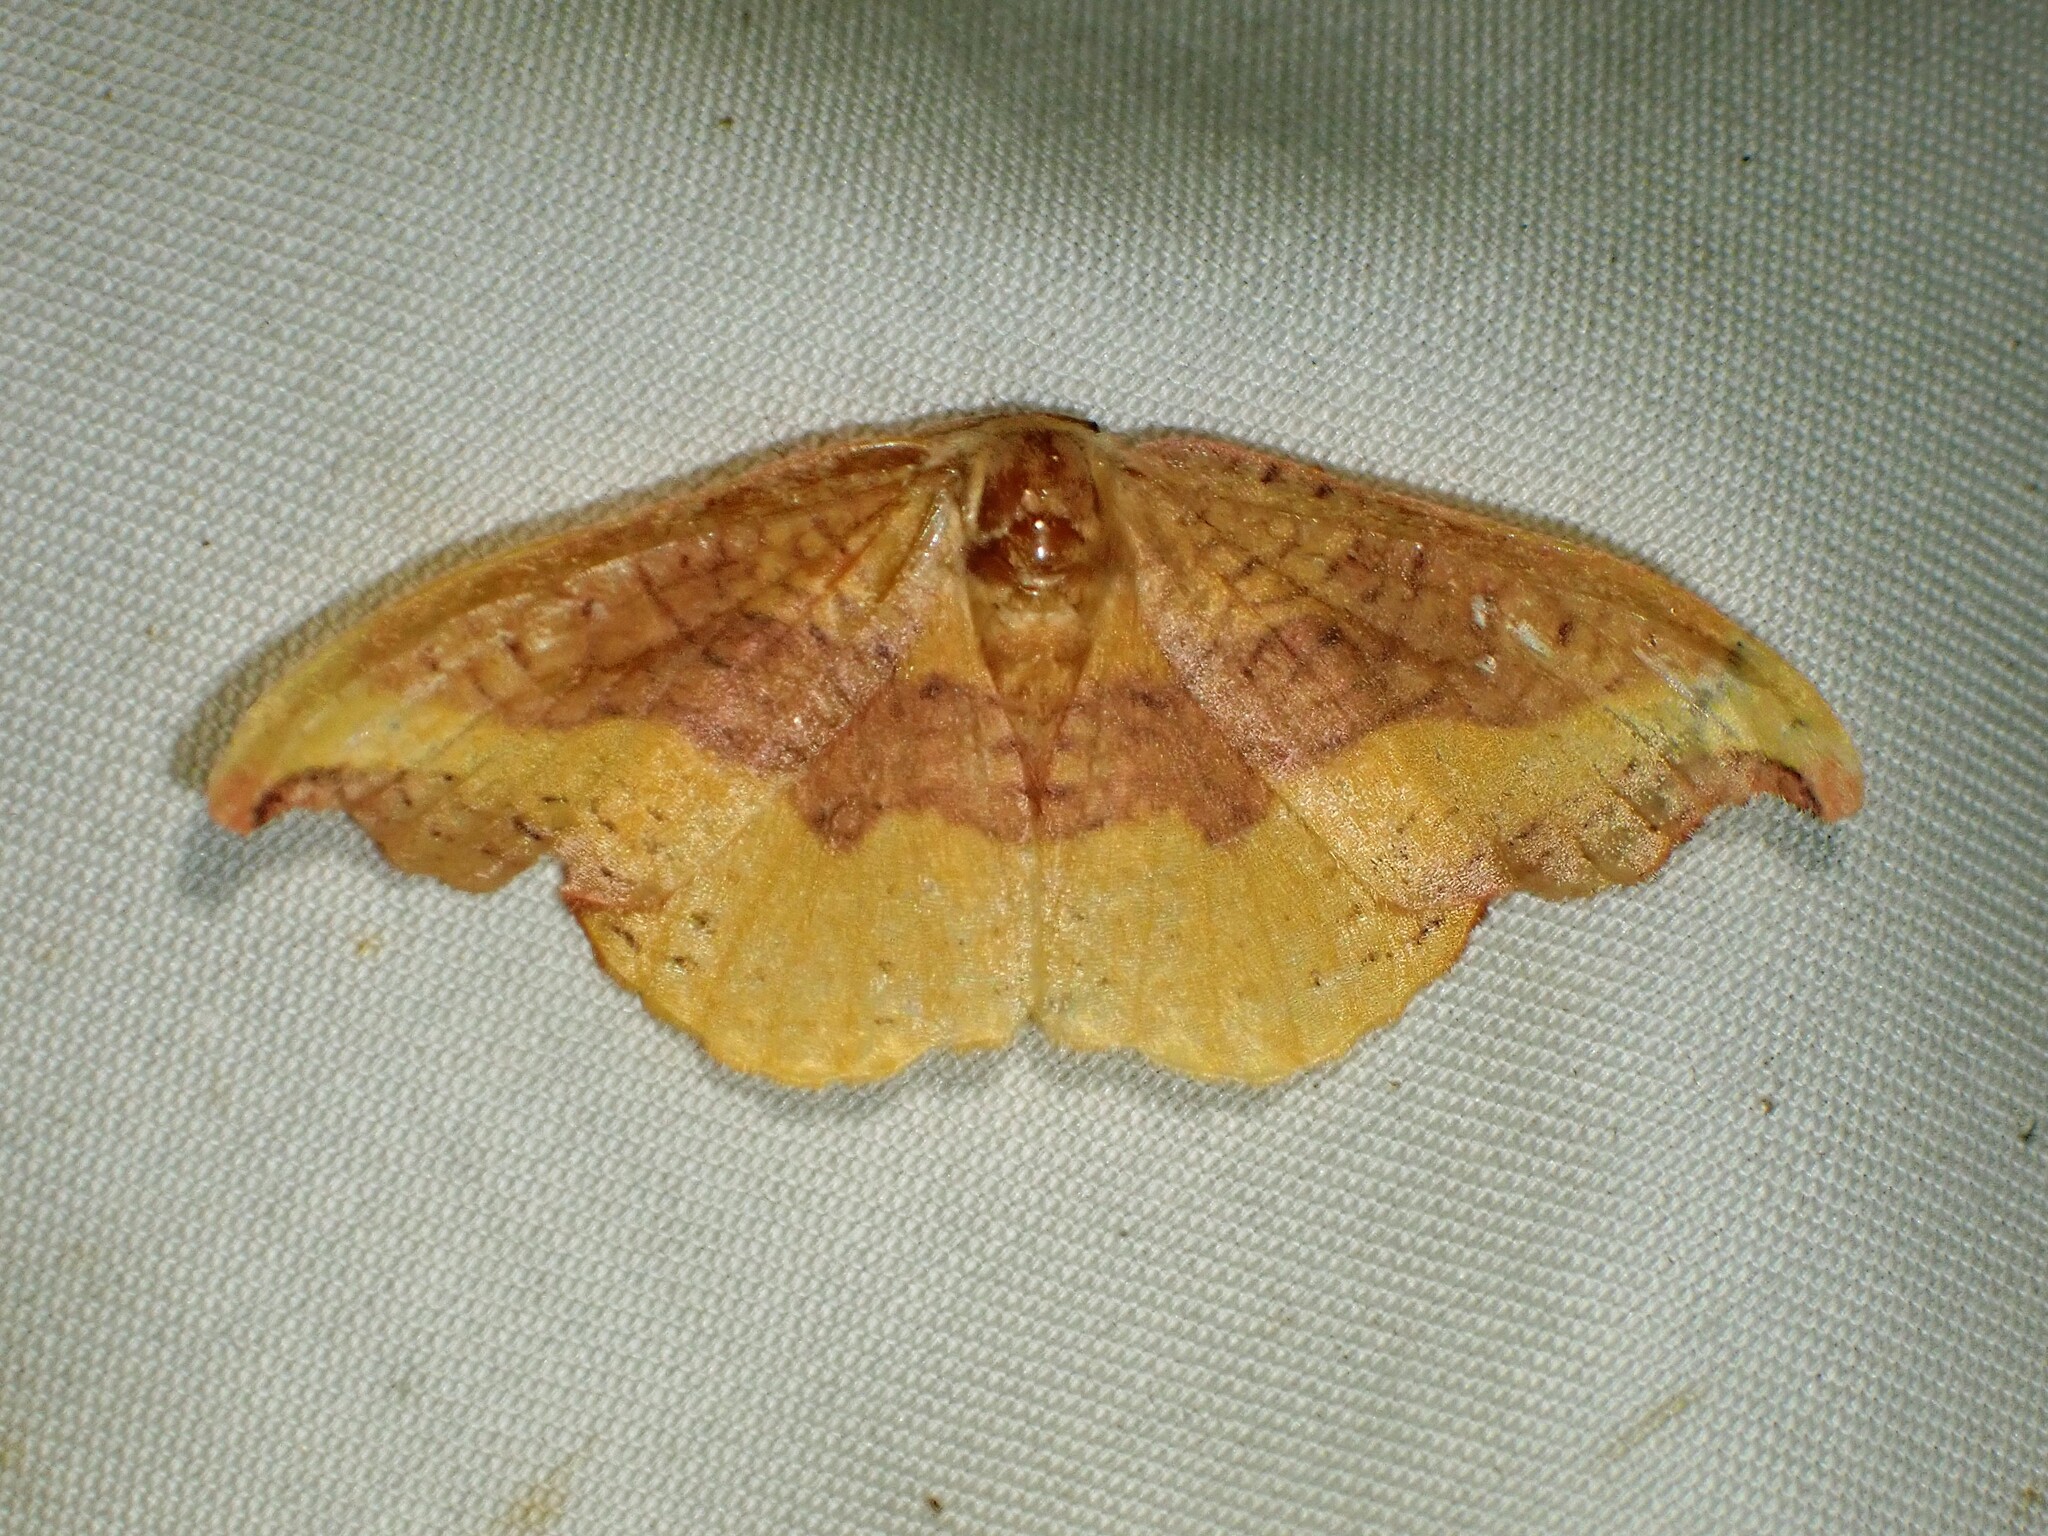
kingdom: Animalia
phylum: Arthropoda
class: Insecta
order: Lepidoptera
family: Drepanidae
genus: Oreta
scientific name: Oreta rosea
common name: Rose hooktip
